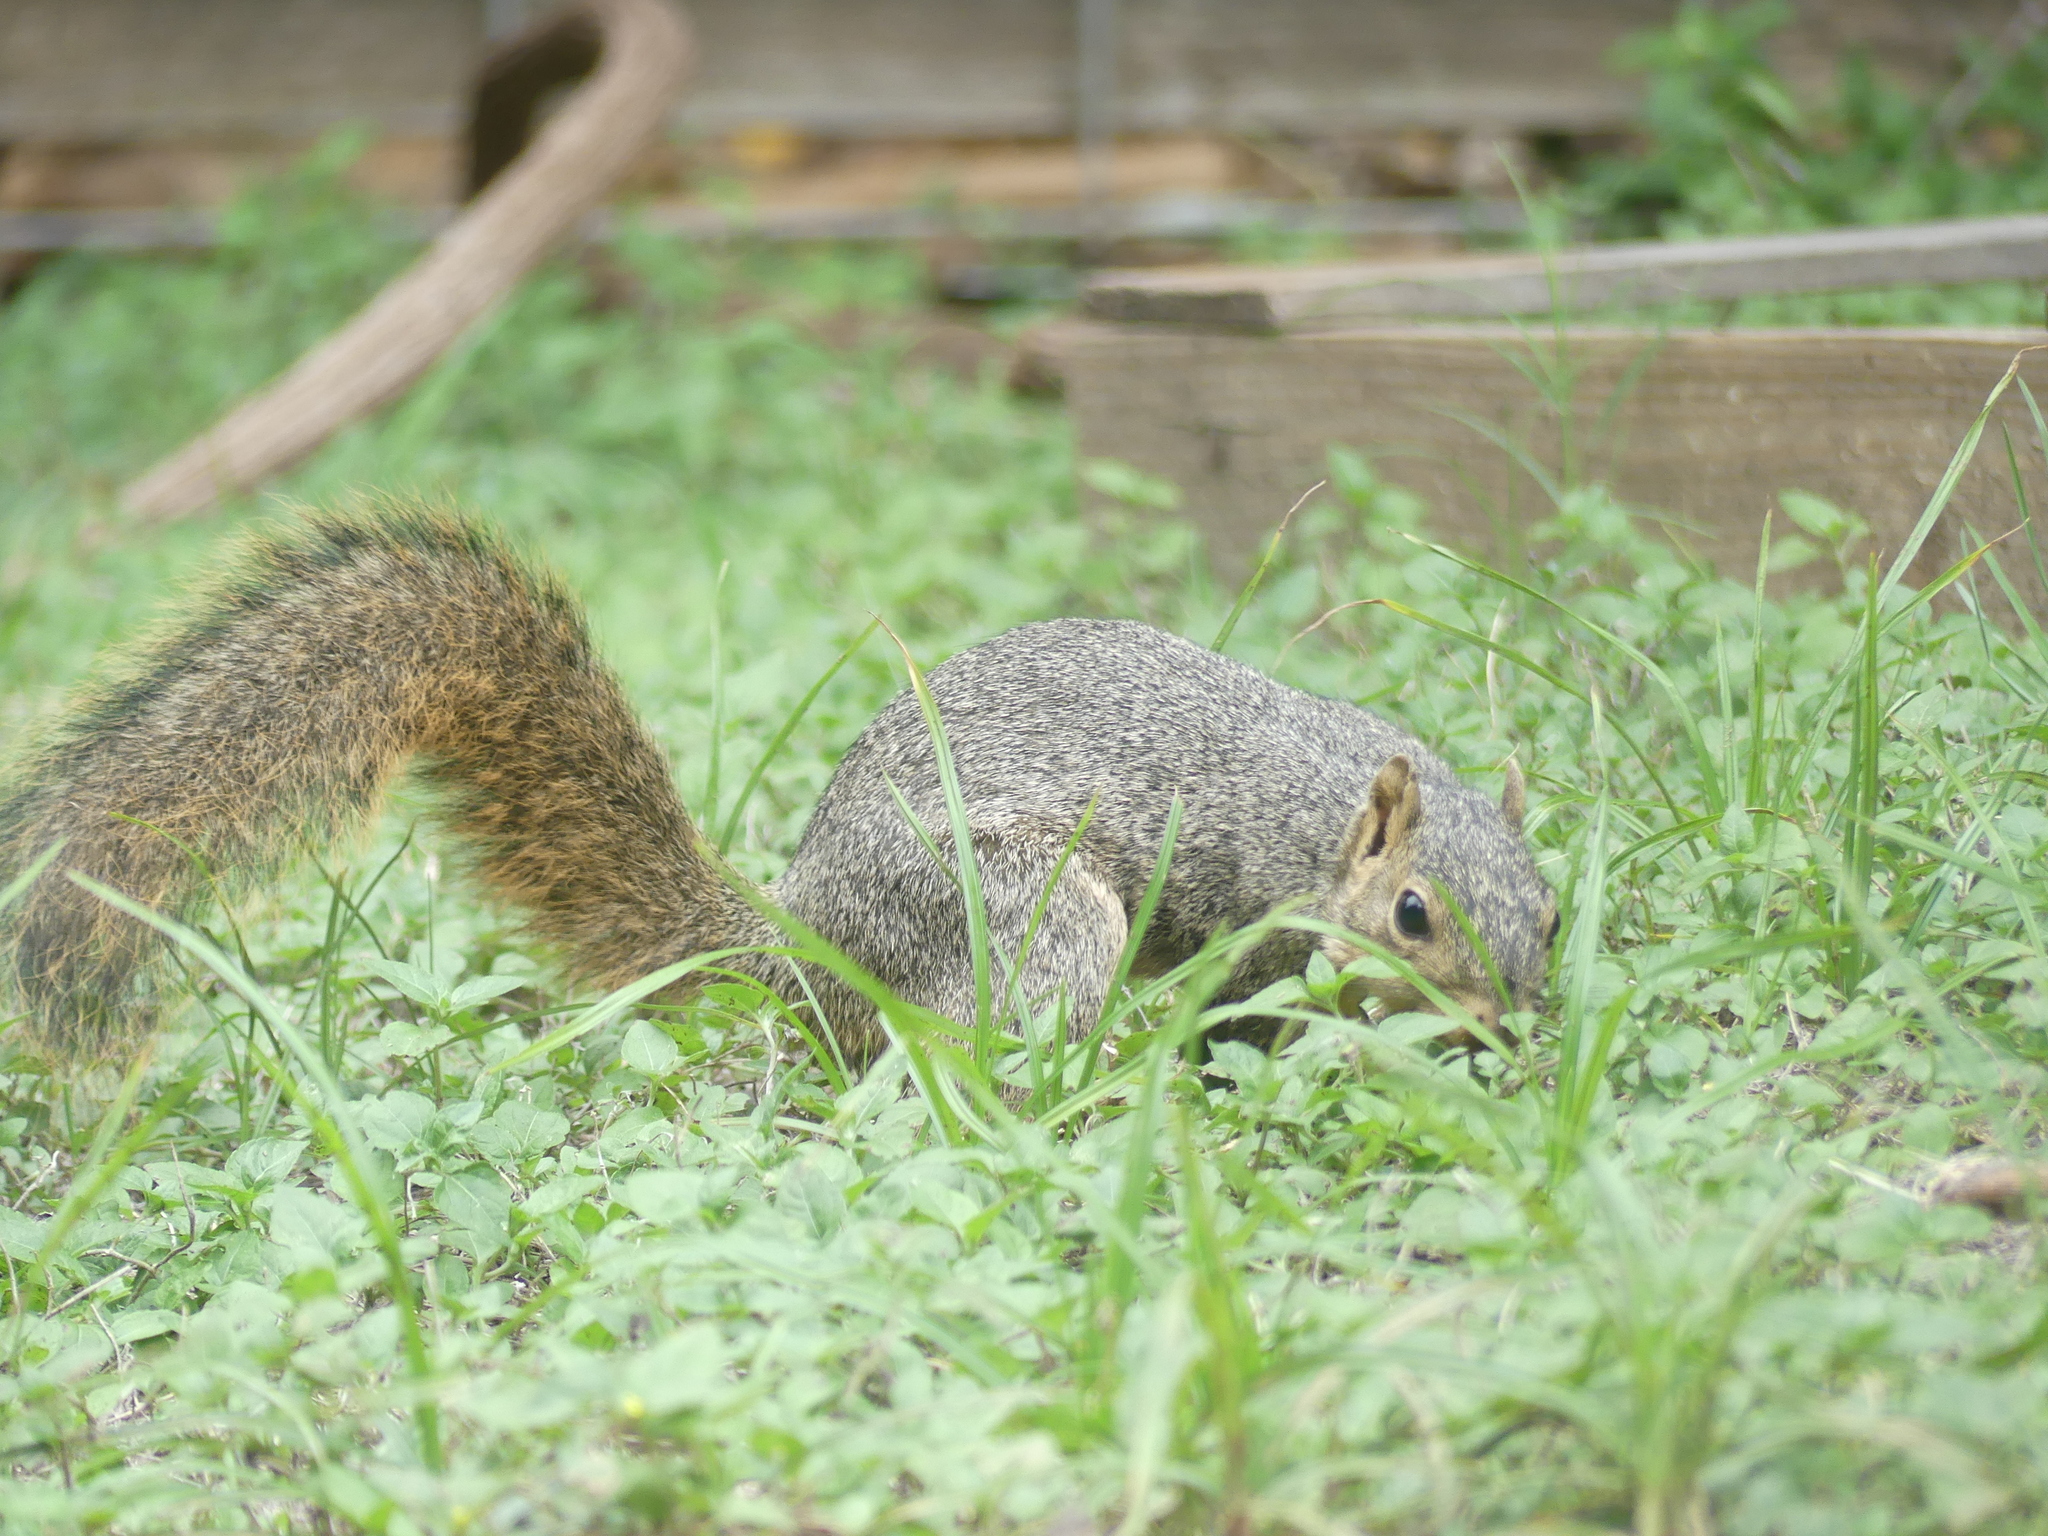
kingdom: Animalia
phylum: Chordata
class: Mammalia
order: Rodentia
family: Sciuridae
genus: Sciurus
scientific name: Sciurus niger
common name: Fox squirrel
